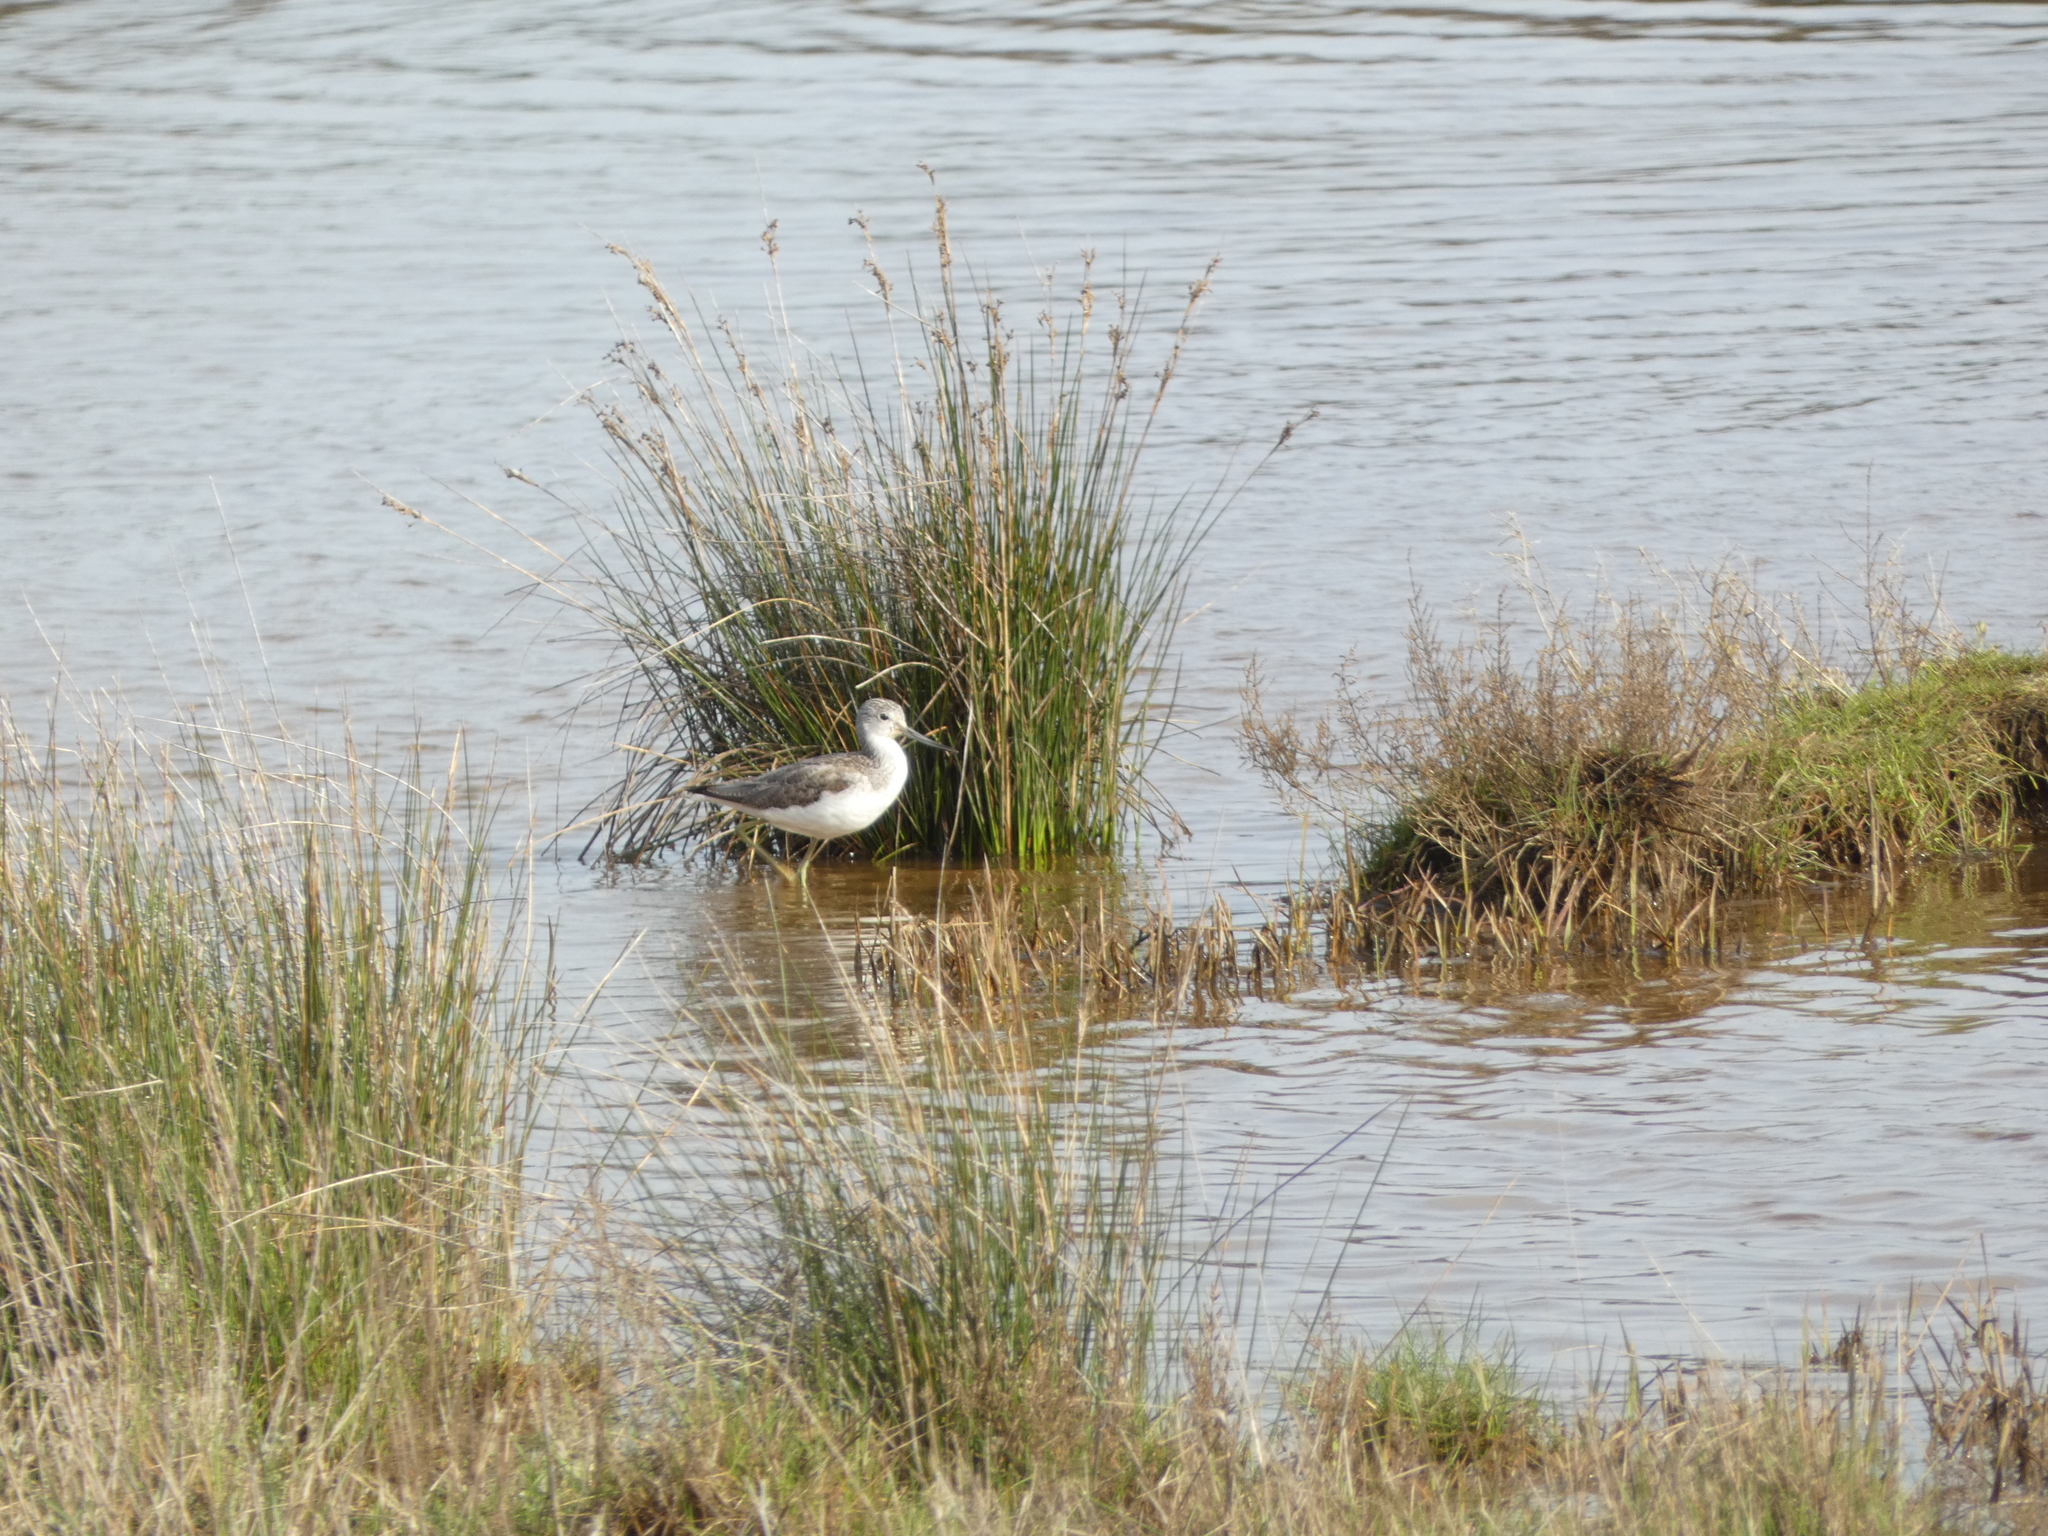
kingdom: Animalia
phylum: Chordata
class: Aves
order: Charadriiformes
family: Scolopacidae
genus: Tringa
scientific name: Tringa nebularia
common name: Common greenshank
